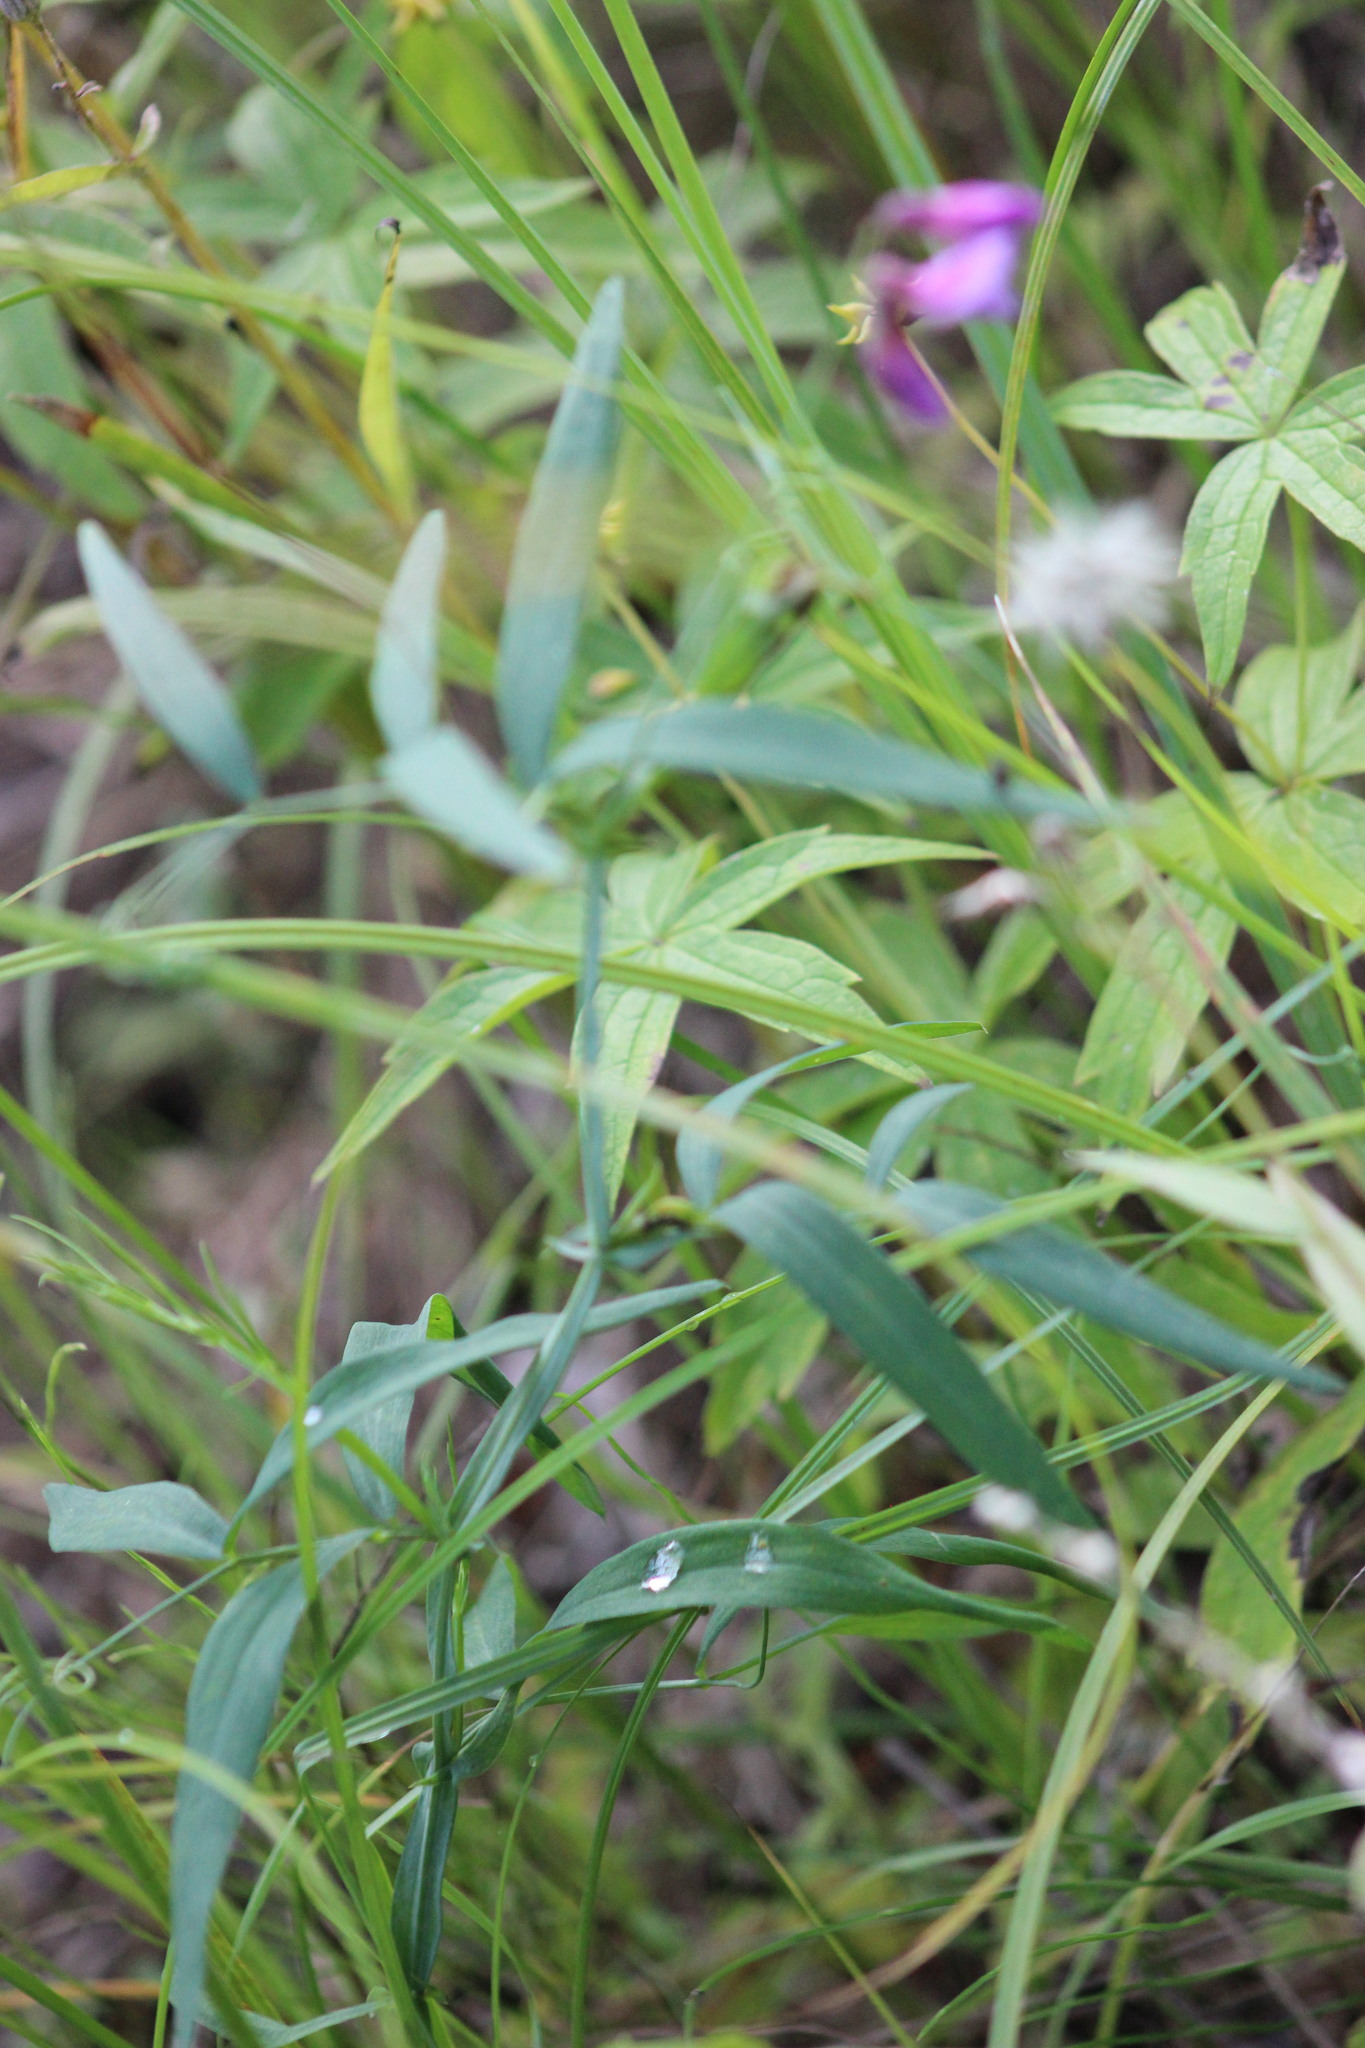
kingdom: Plantae
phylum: Tracheophyta
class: Magnoliopsida
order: Fabales
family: Fabaceae
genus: Lathyrus
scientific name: Lathyrus palustris
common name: Marsh pea
